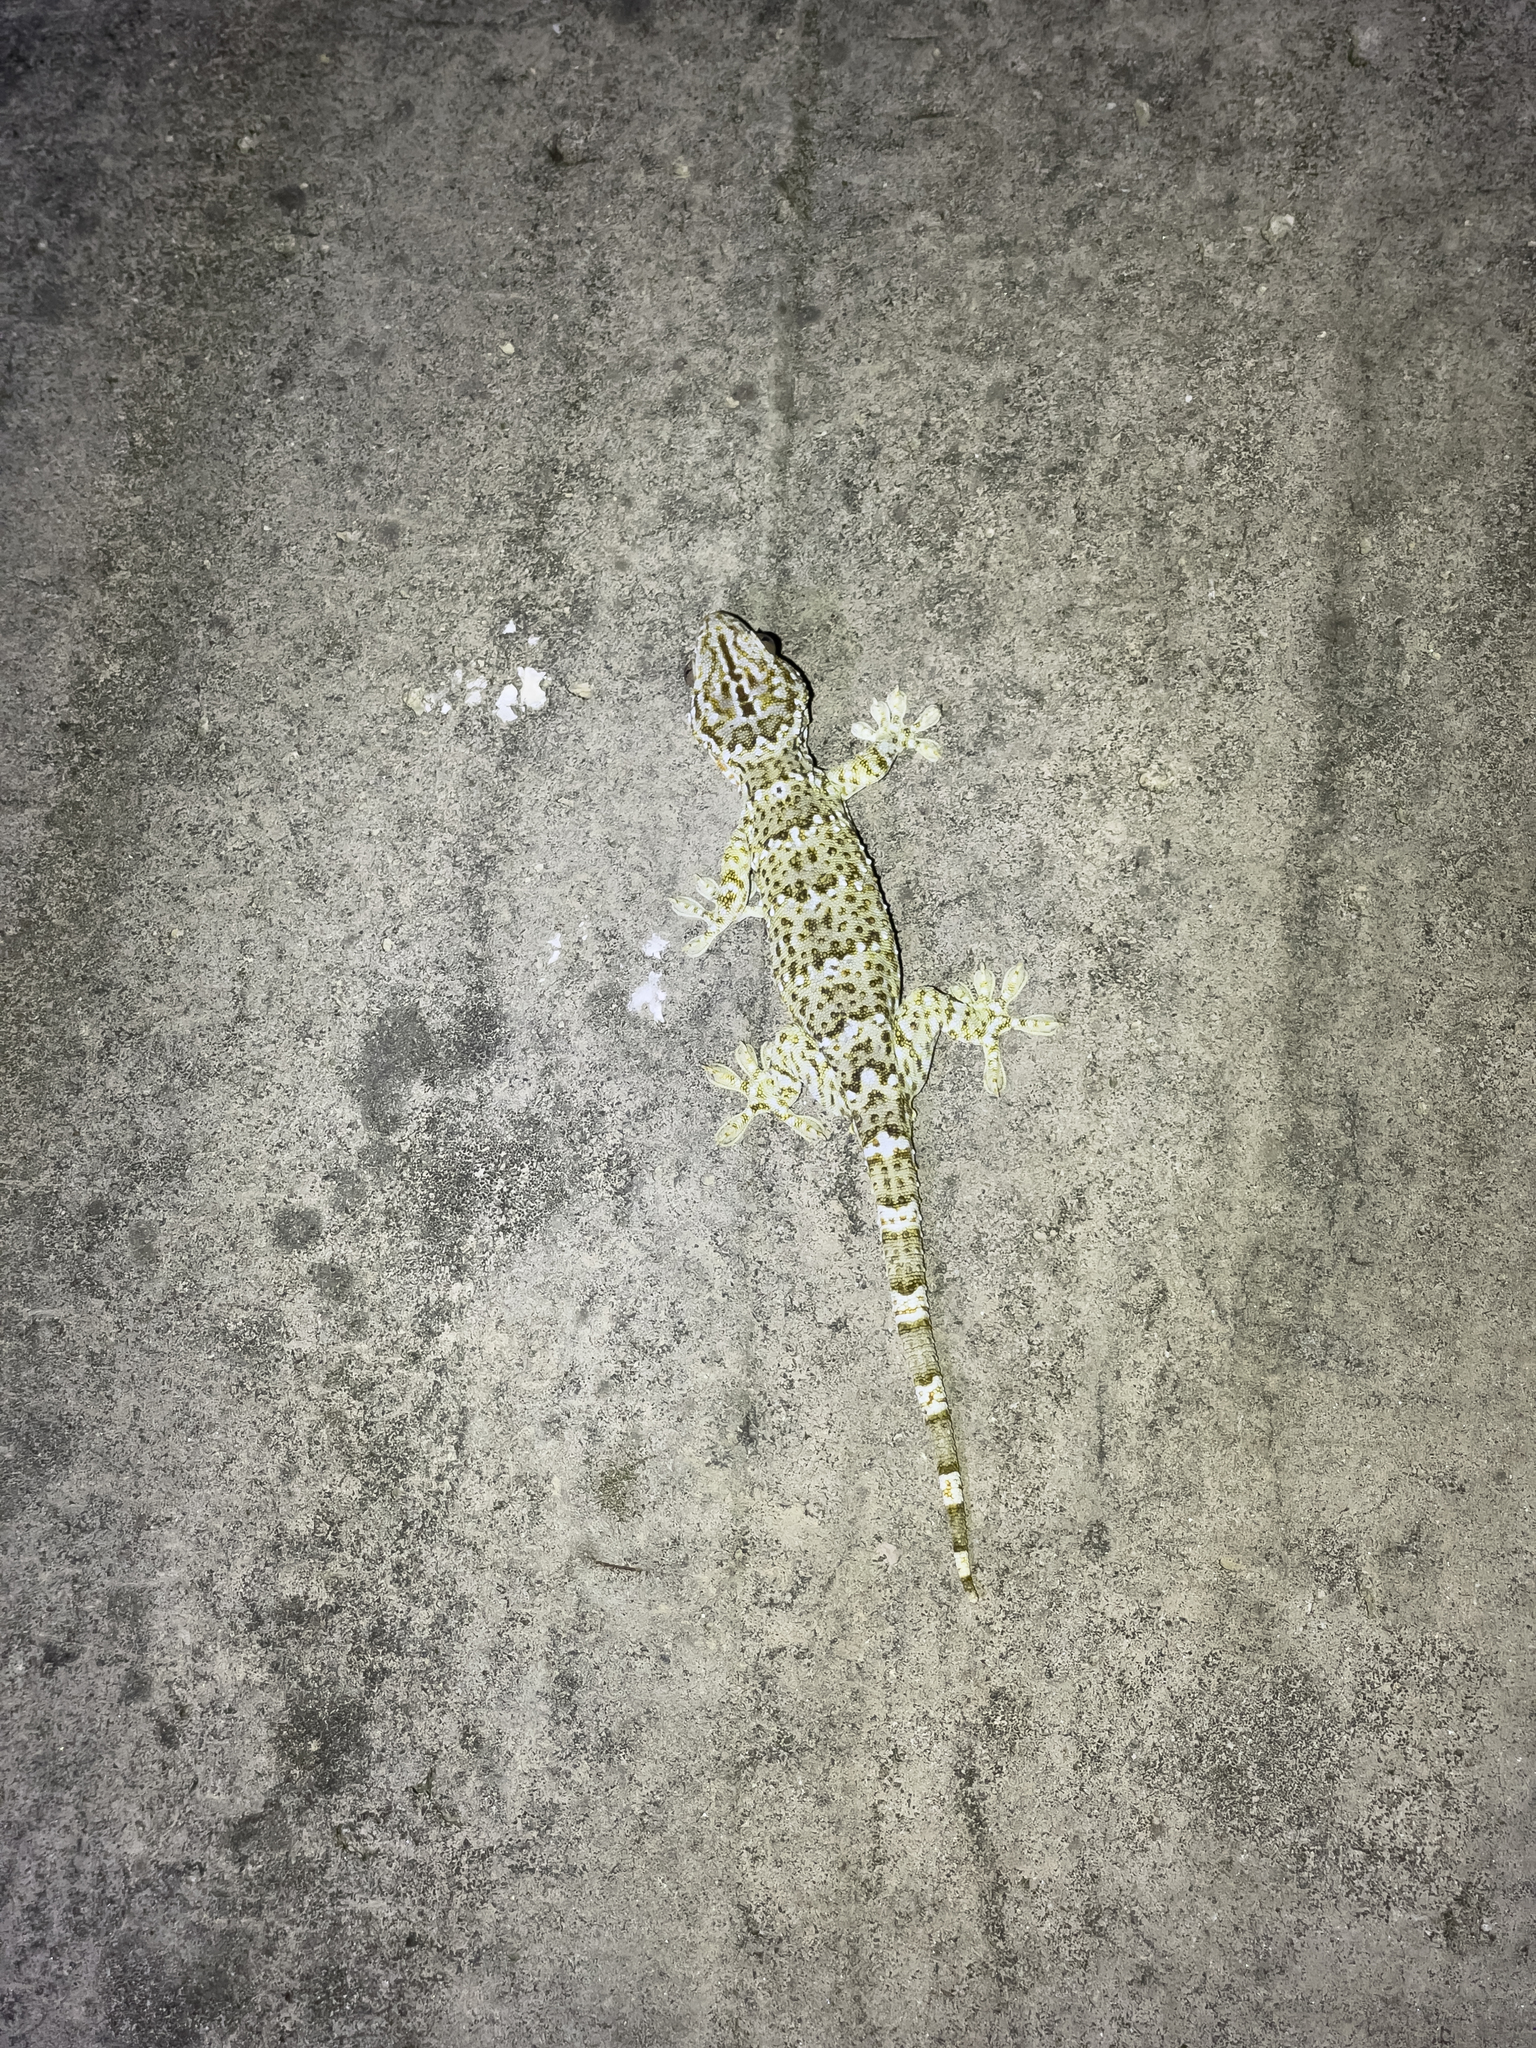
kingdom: Animalia
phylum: Chordata
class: Squamata
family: Gekkonidae
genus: Gekko
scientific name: Gekko reevesii
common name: Reeves’ tokay gecko
